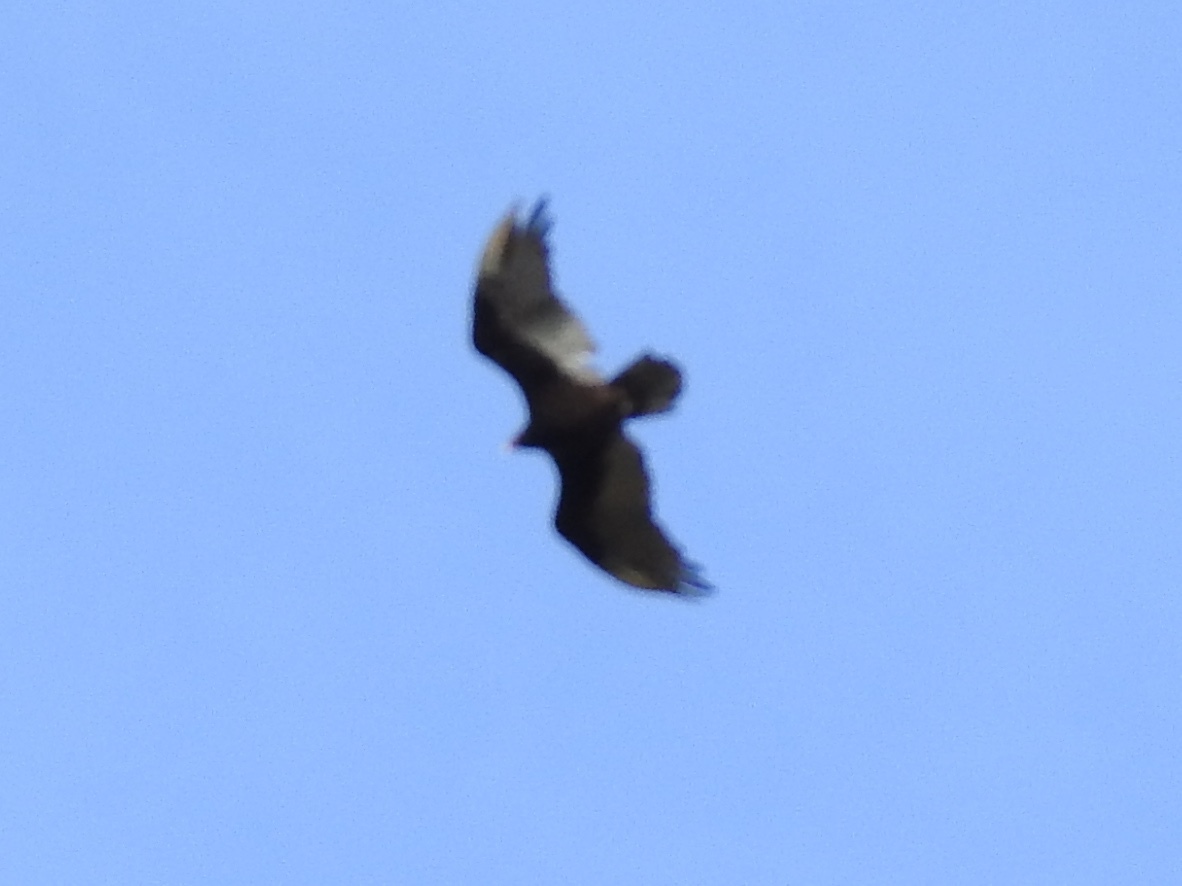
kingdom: Animalia
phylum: Chordata
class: Aves
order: Accipitriformes
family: Cathartidae
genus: Cathartes
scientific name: Cathartes aura
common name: Turkey vulture
